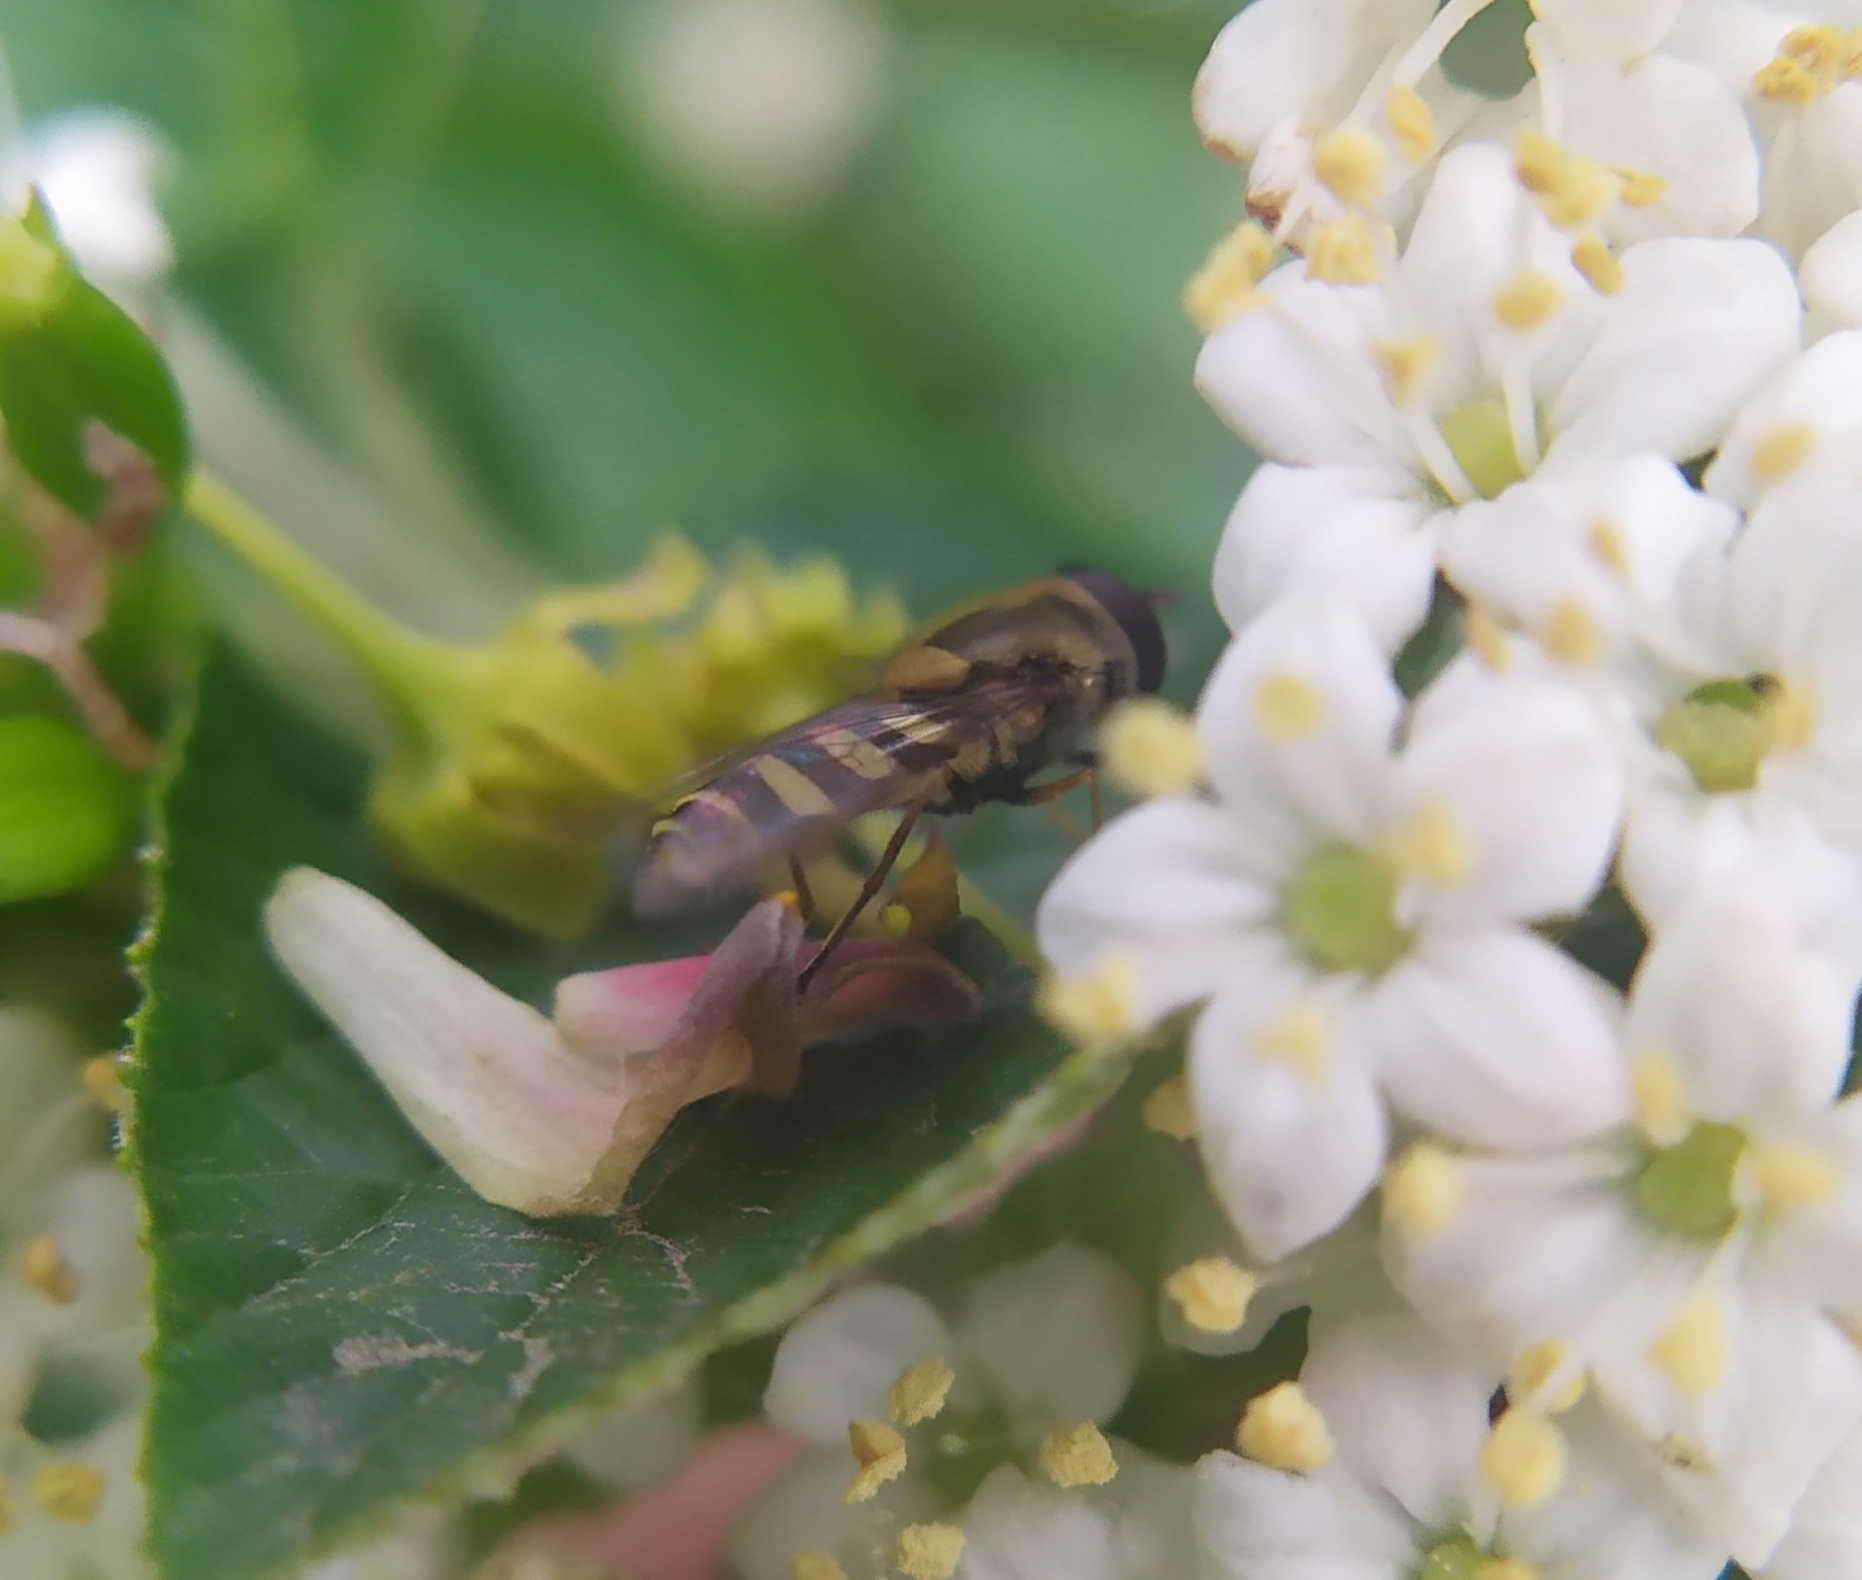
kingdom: Animalia
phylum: Arthropoda
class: Insecta
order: Diptera
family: Syrphidae
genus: Syrphus
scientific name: Syrphus
